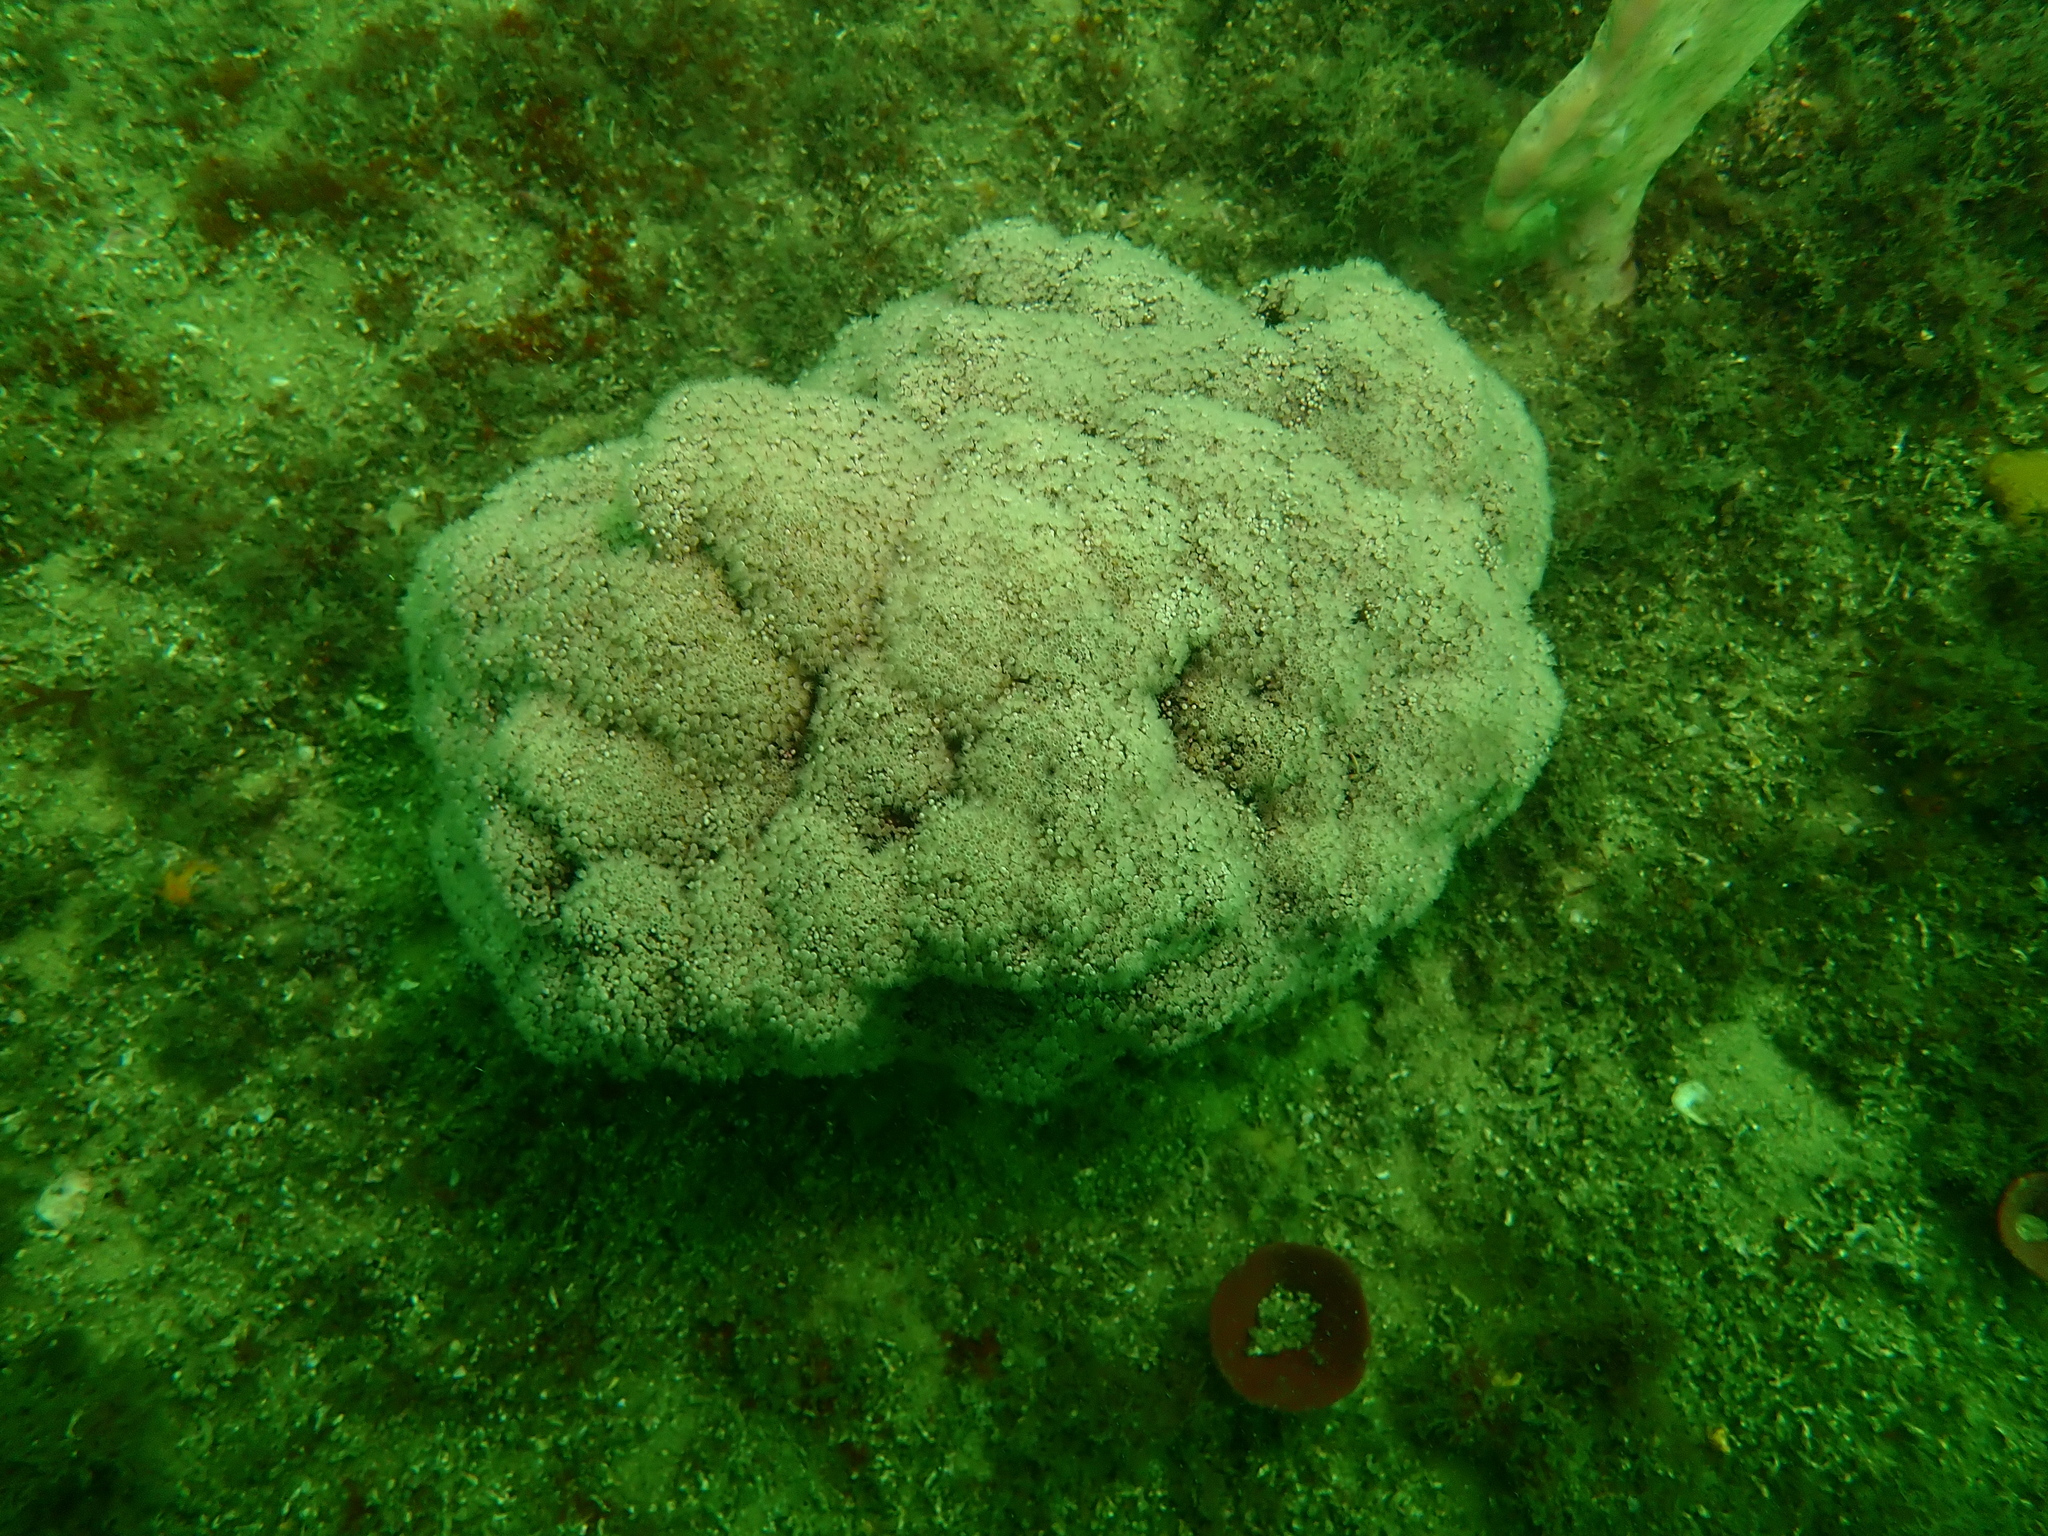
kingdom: Animalia
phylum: Cnidaria
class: Anthozoa
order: Malacalcyonacea
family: Nephtheidae
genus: Dendronephthya
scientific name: Dendronephthya australis
